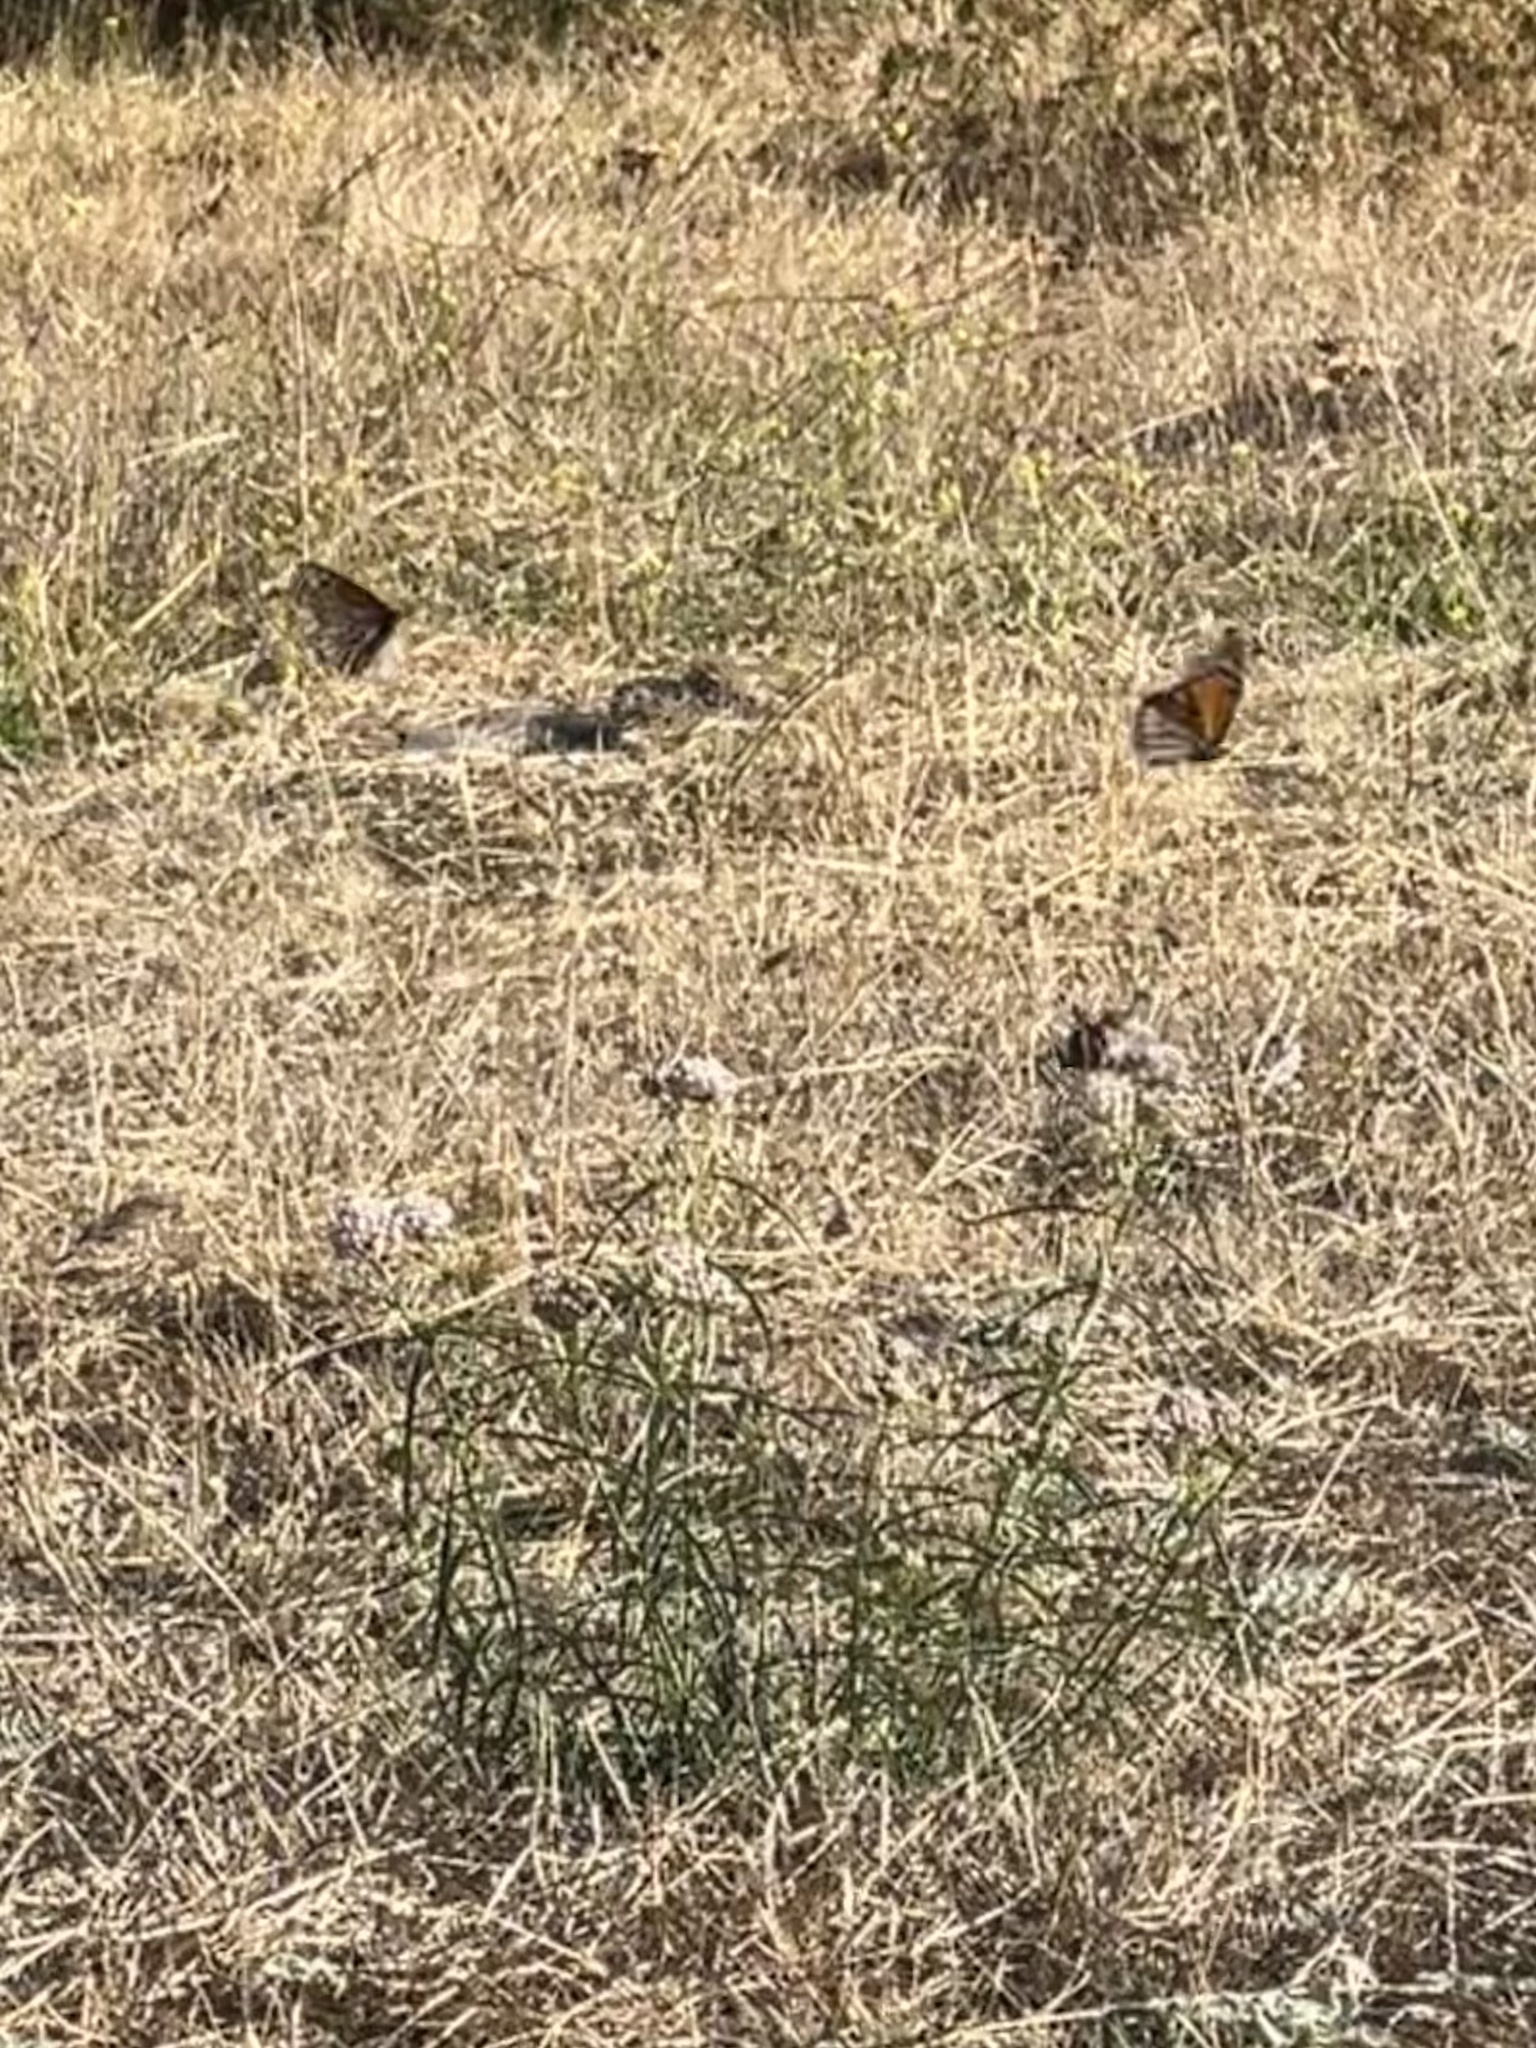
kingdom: Animalia
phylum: Arthropoda
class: Insecta
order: Lepidoptera
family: Nymphalidae
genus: Danaus
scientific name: Danaus plexippus
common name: Monarch
